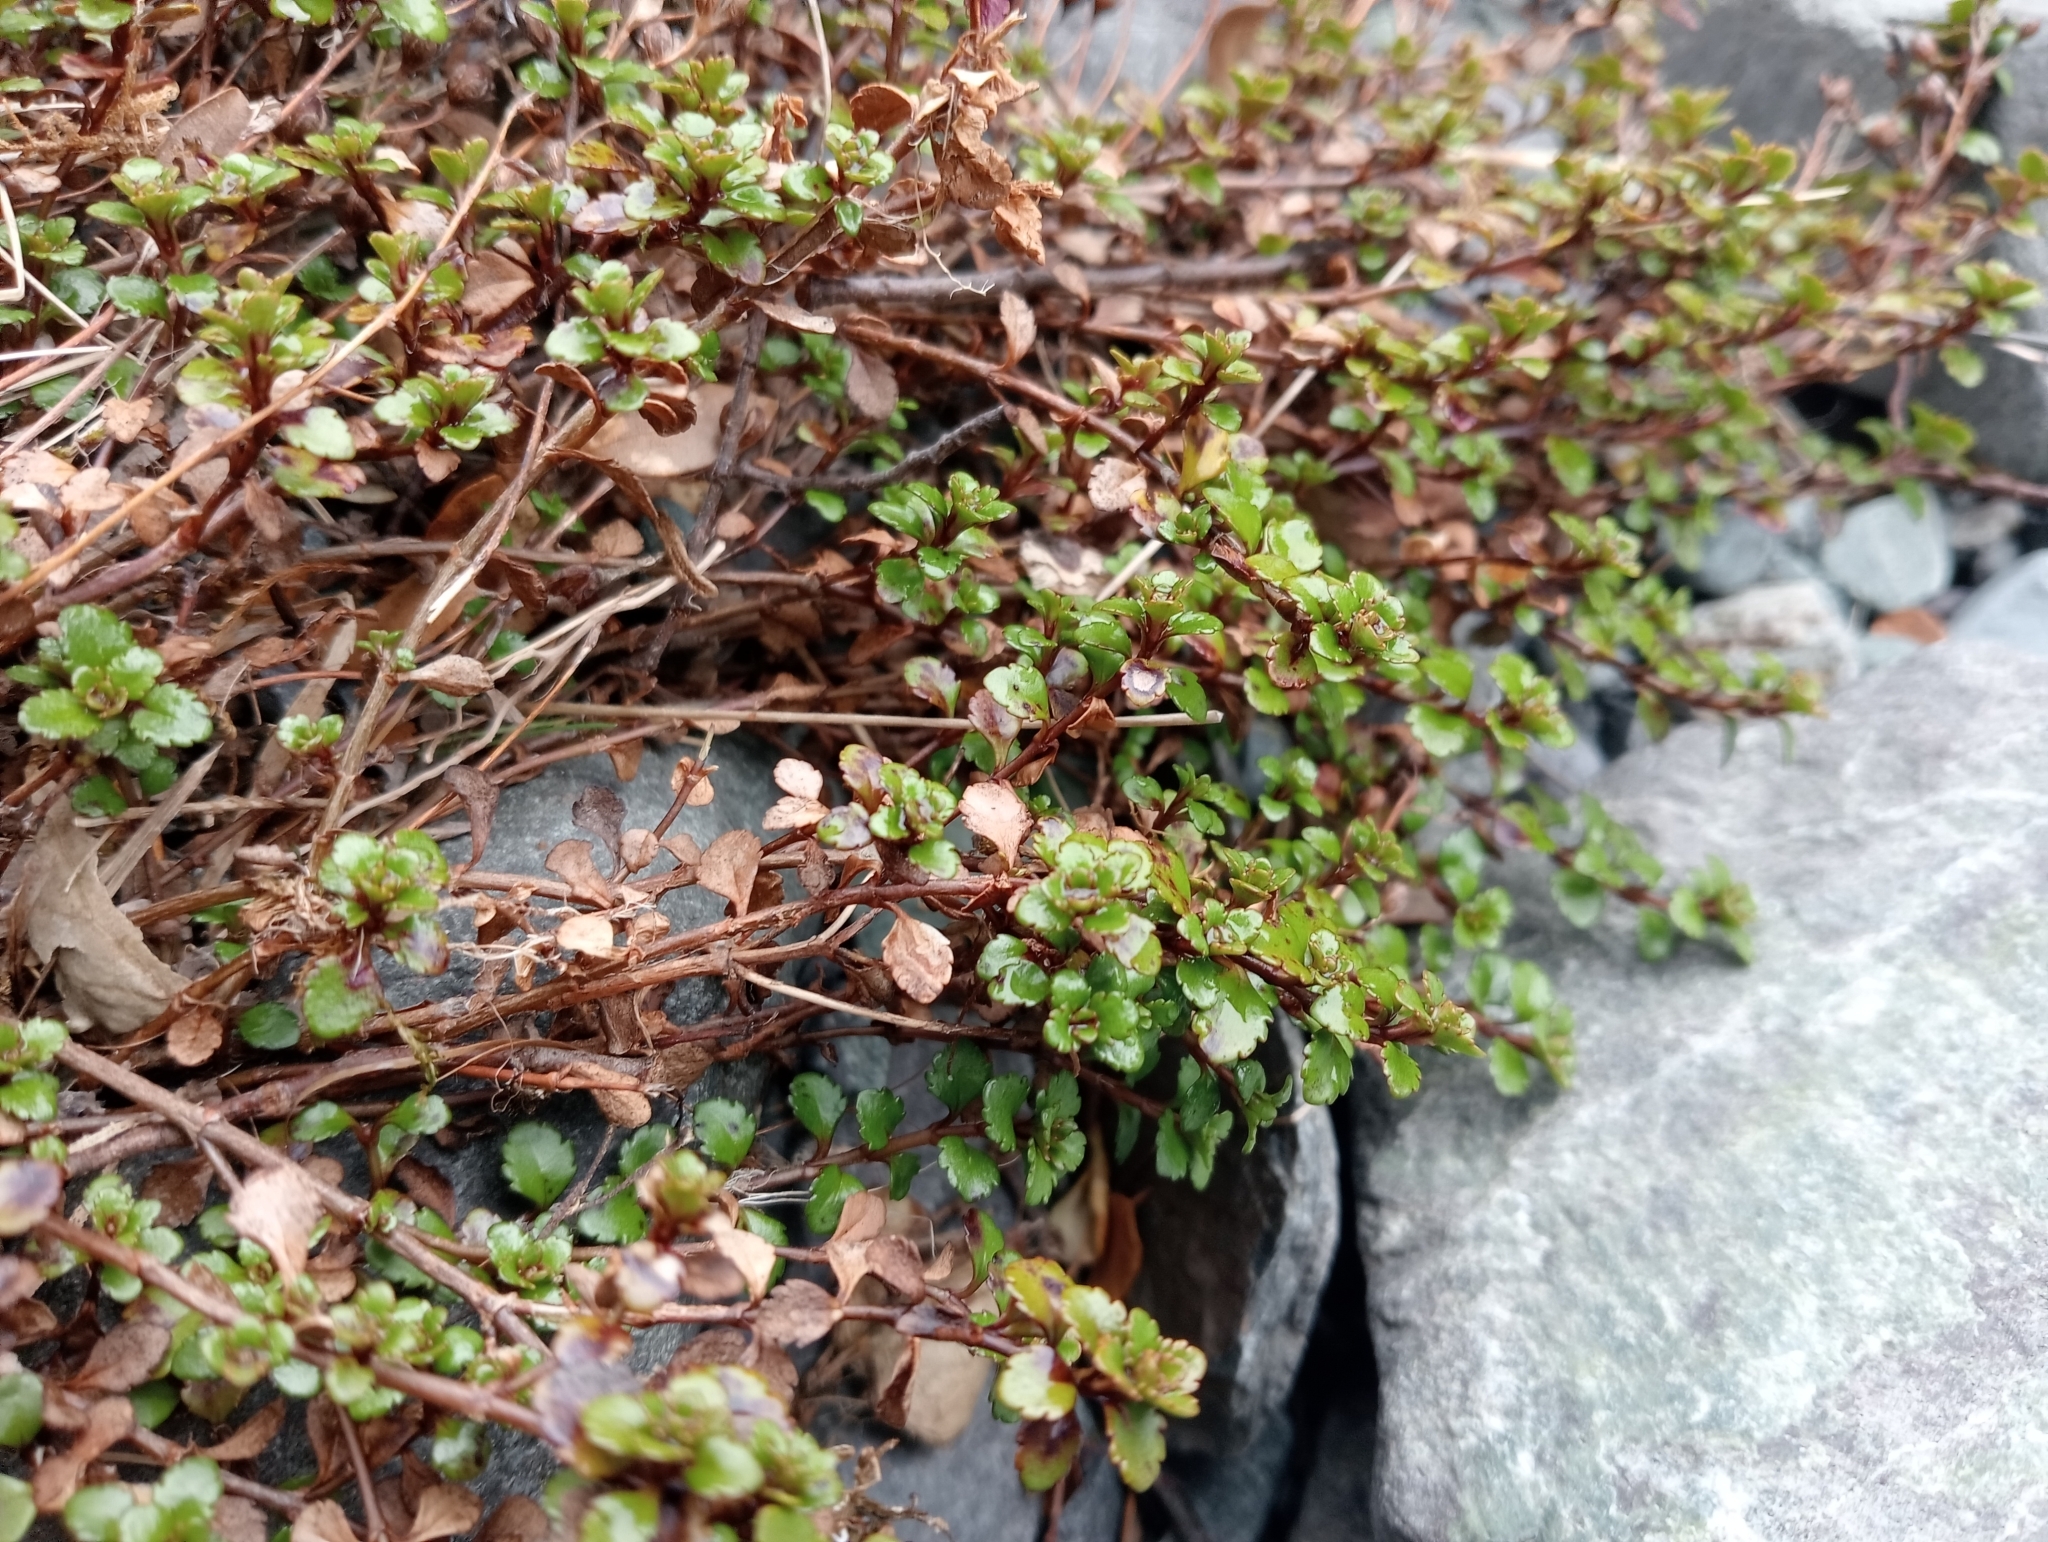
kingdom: Plantae
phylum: Tracheophyta
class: Magnoliopsida
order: Lamiales
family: Plantaginaceae
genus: Veronica
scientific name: Veronica lyallii
